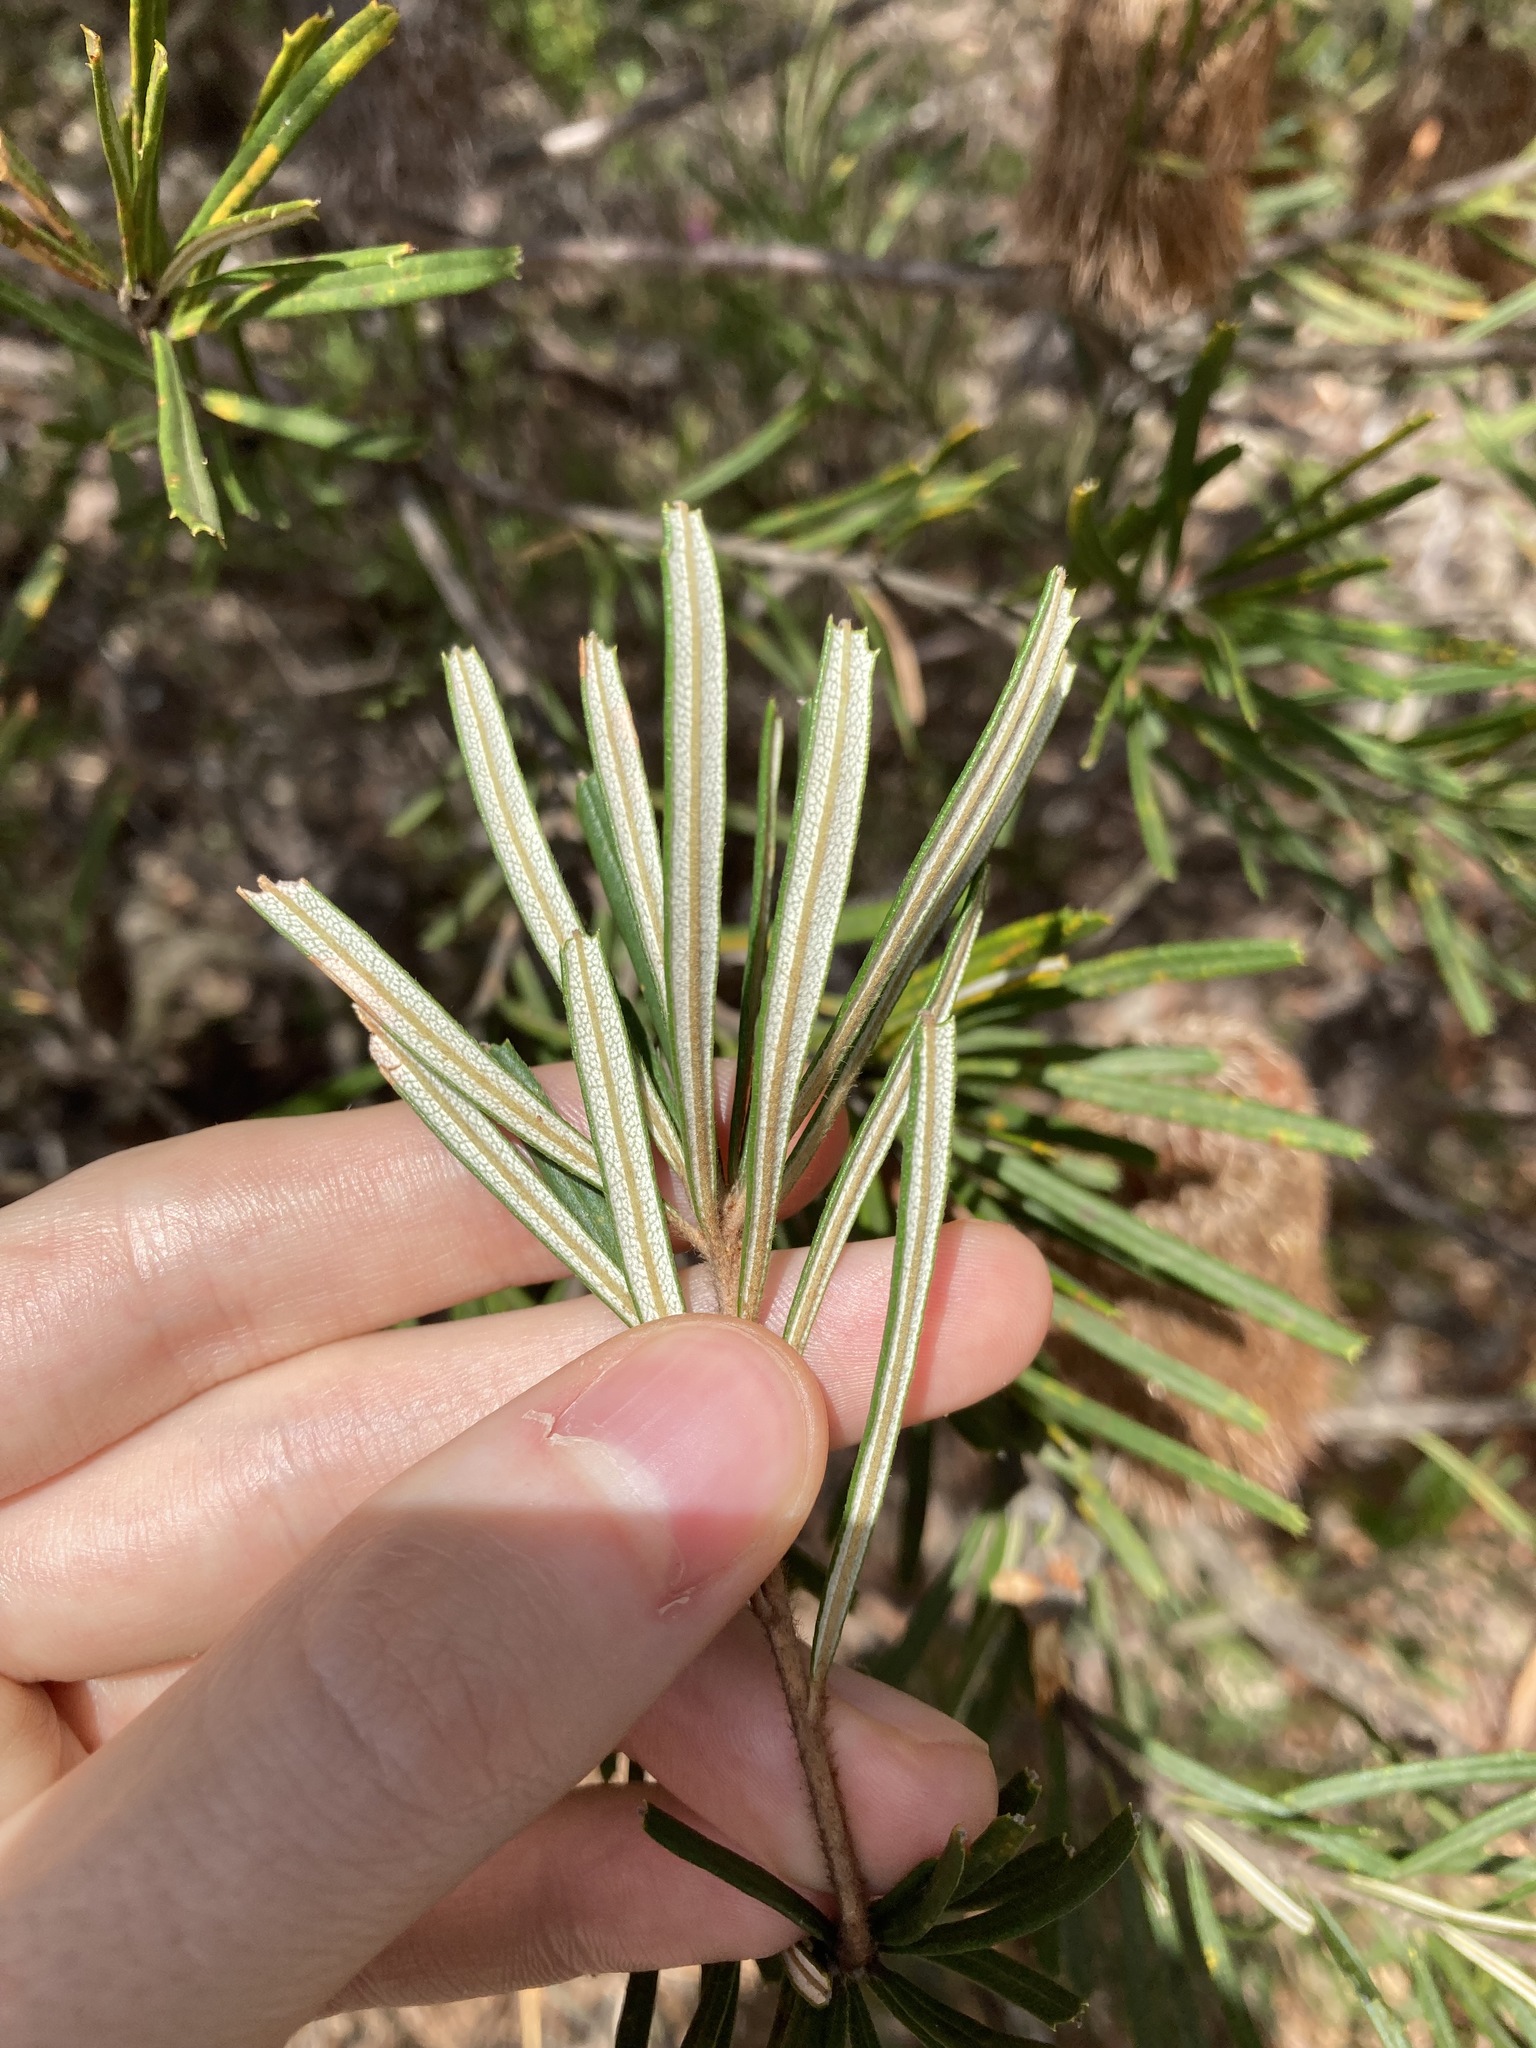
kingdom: Plantae
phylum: Tracheophyta
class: Magnoliopsida
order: Proteales
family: Proteaceae
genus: Banksia
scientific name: Banksia marginata
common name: Silver banksia
